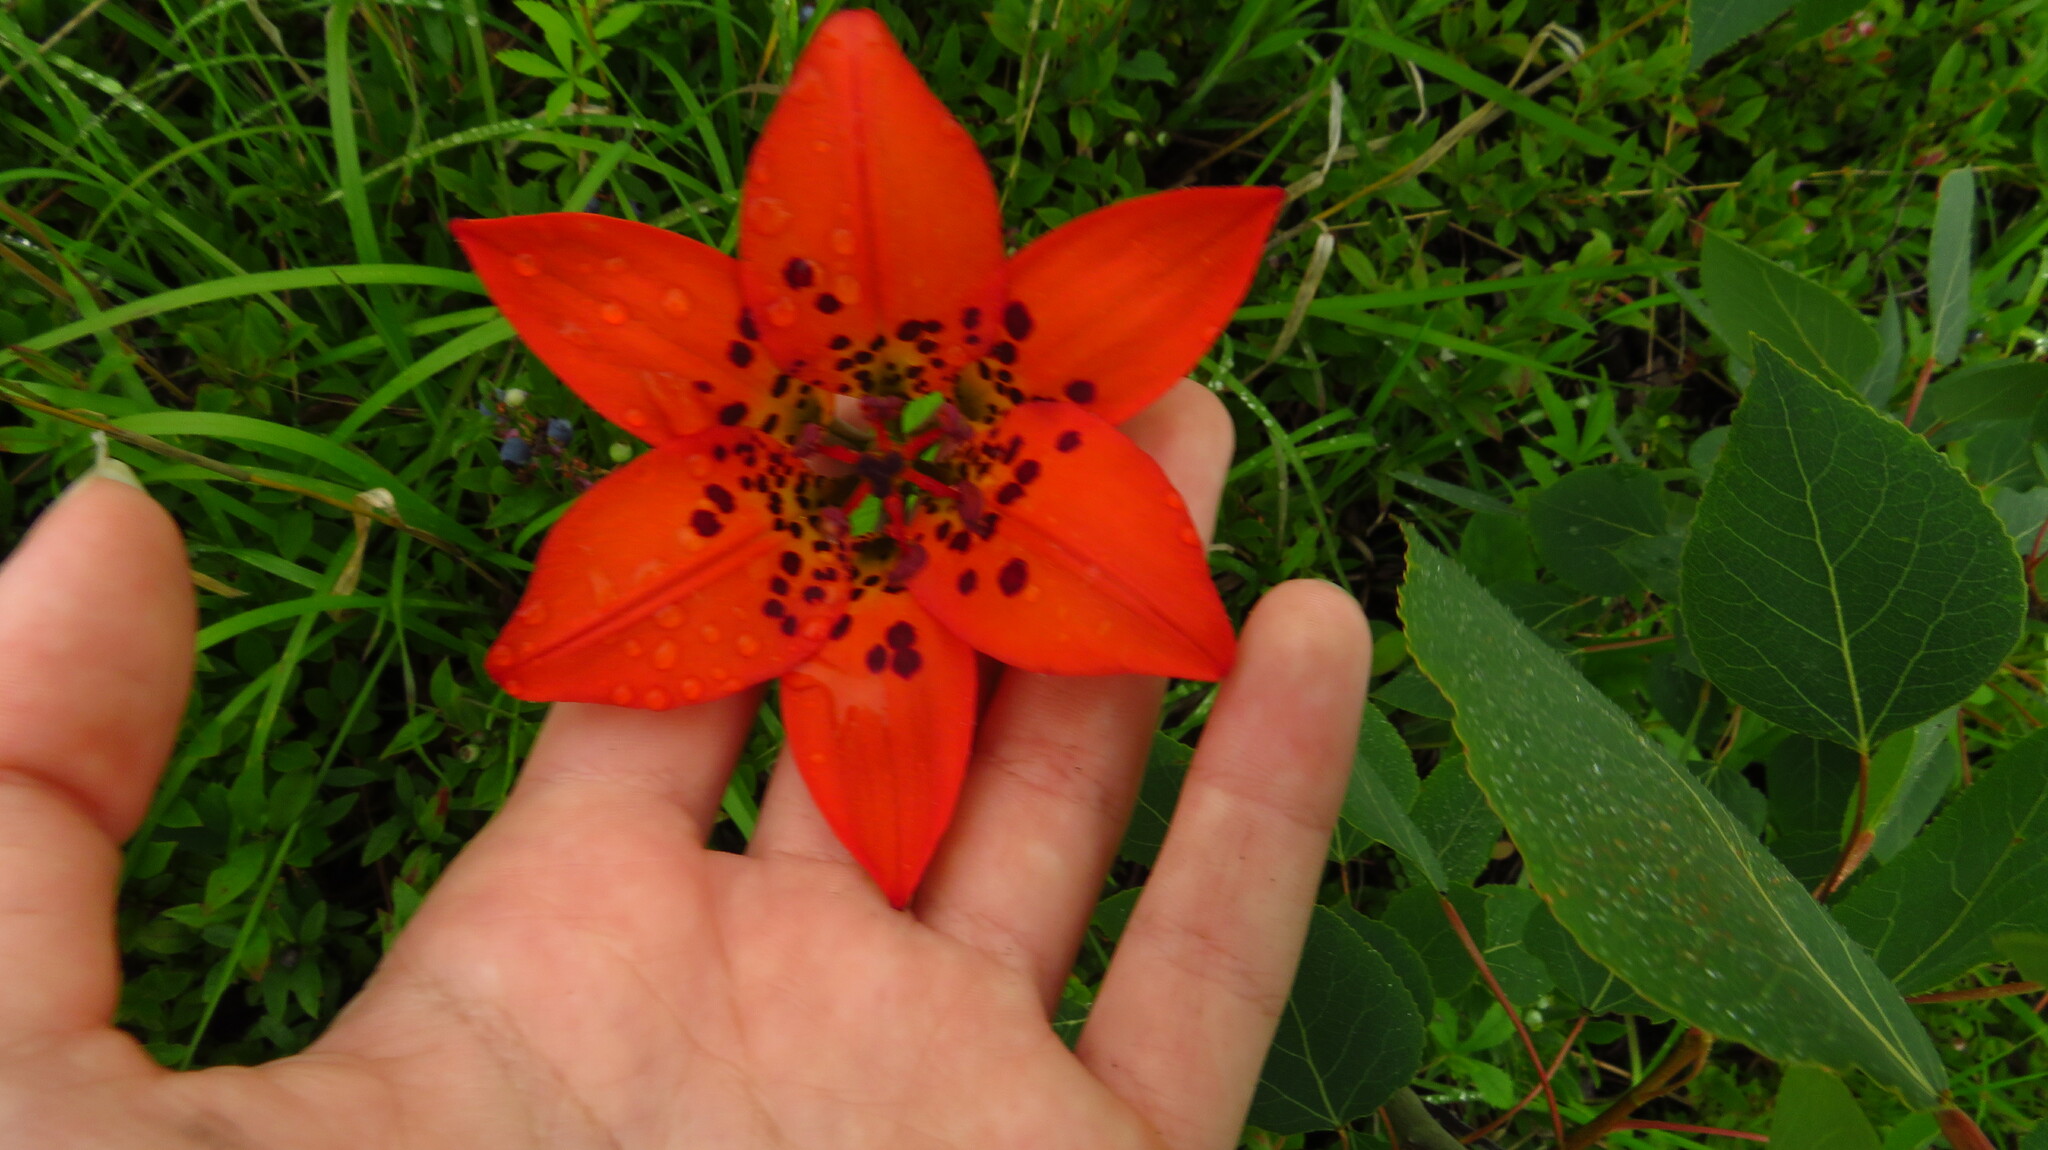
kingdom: Plantae
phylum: Tracheophyta
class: Liliopsida
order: Liliales
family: Liliaceae
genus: Lilium
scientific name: Lilium philadelphicum
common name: Red lily
